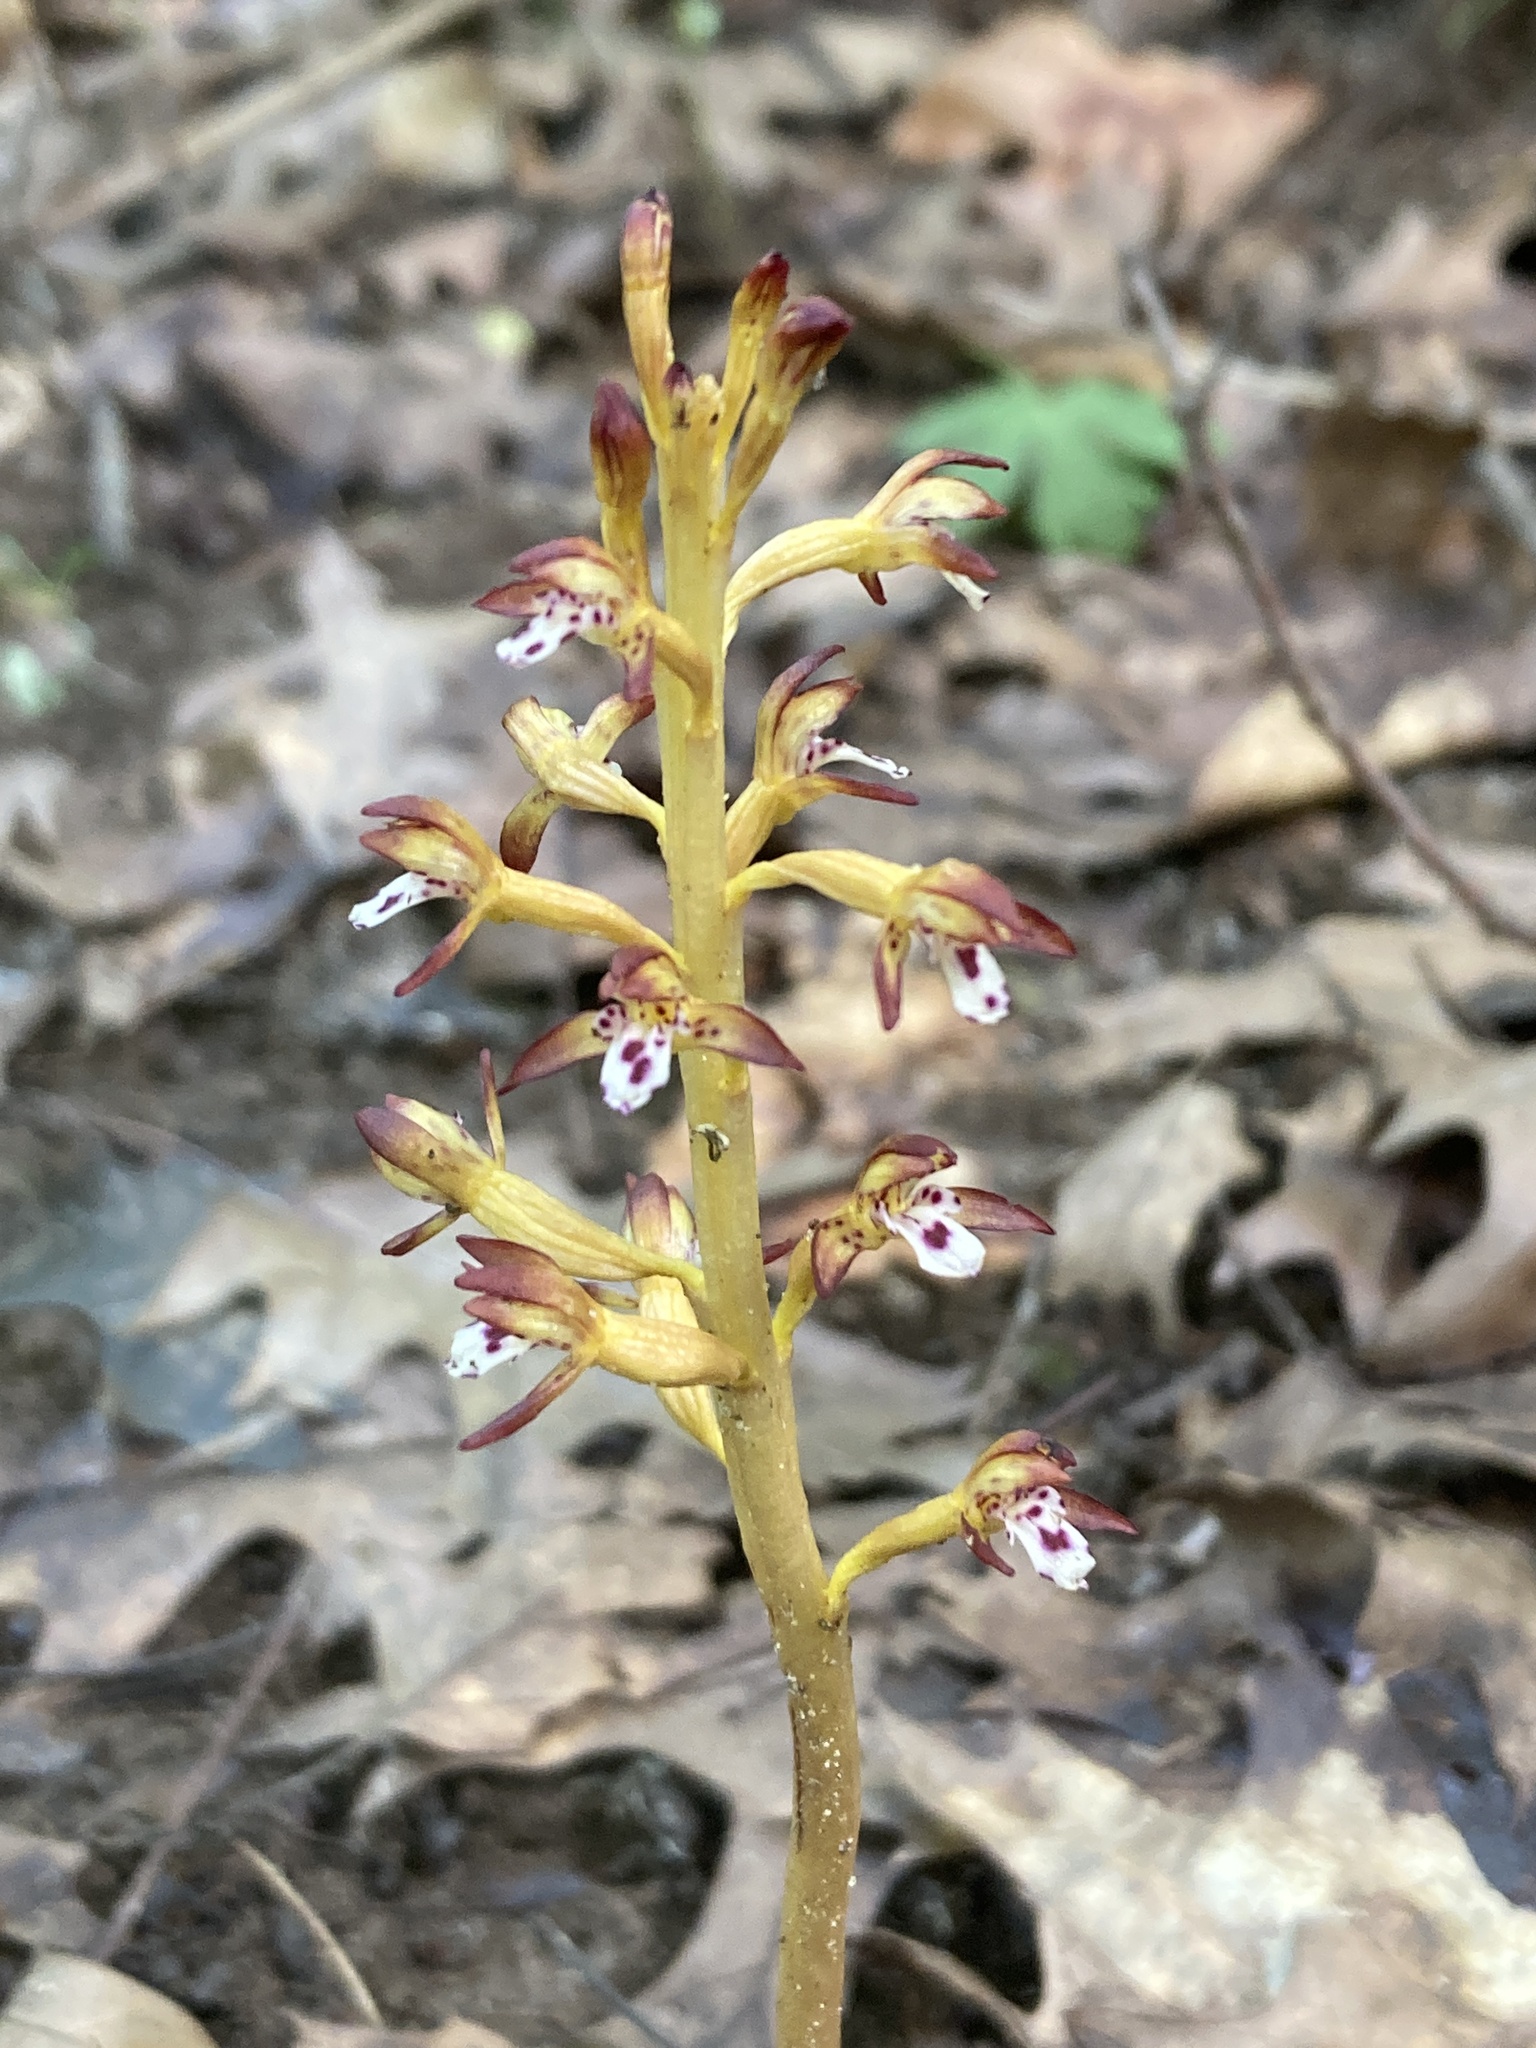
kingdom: Plantae
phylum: Tracheophyta
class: Liliopsida
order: Asparagales
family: Orchidaceae
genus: Corallorhiza
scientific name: Corallorhiza maculata
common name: Spotted coralroot
